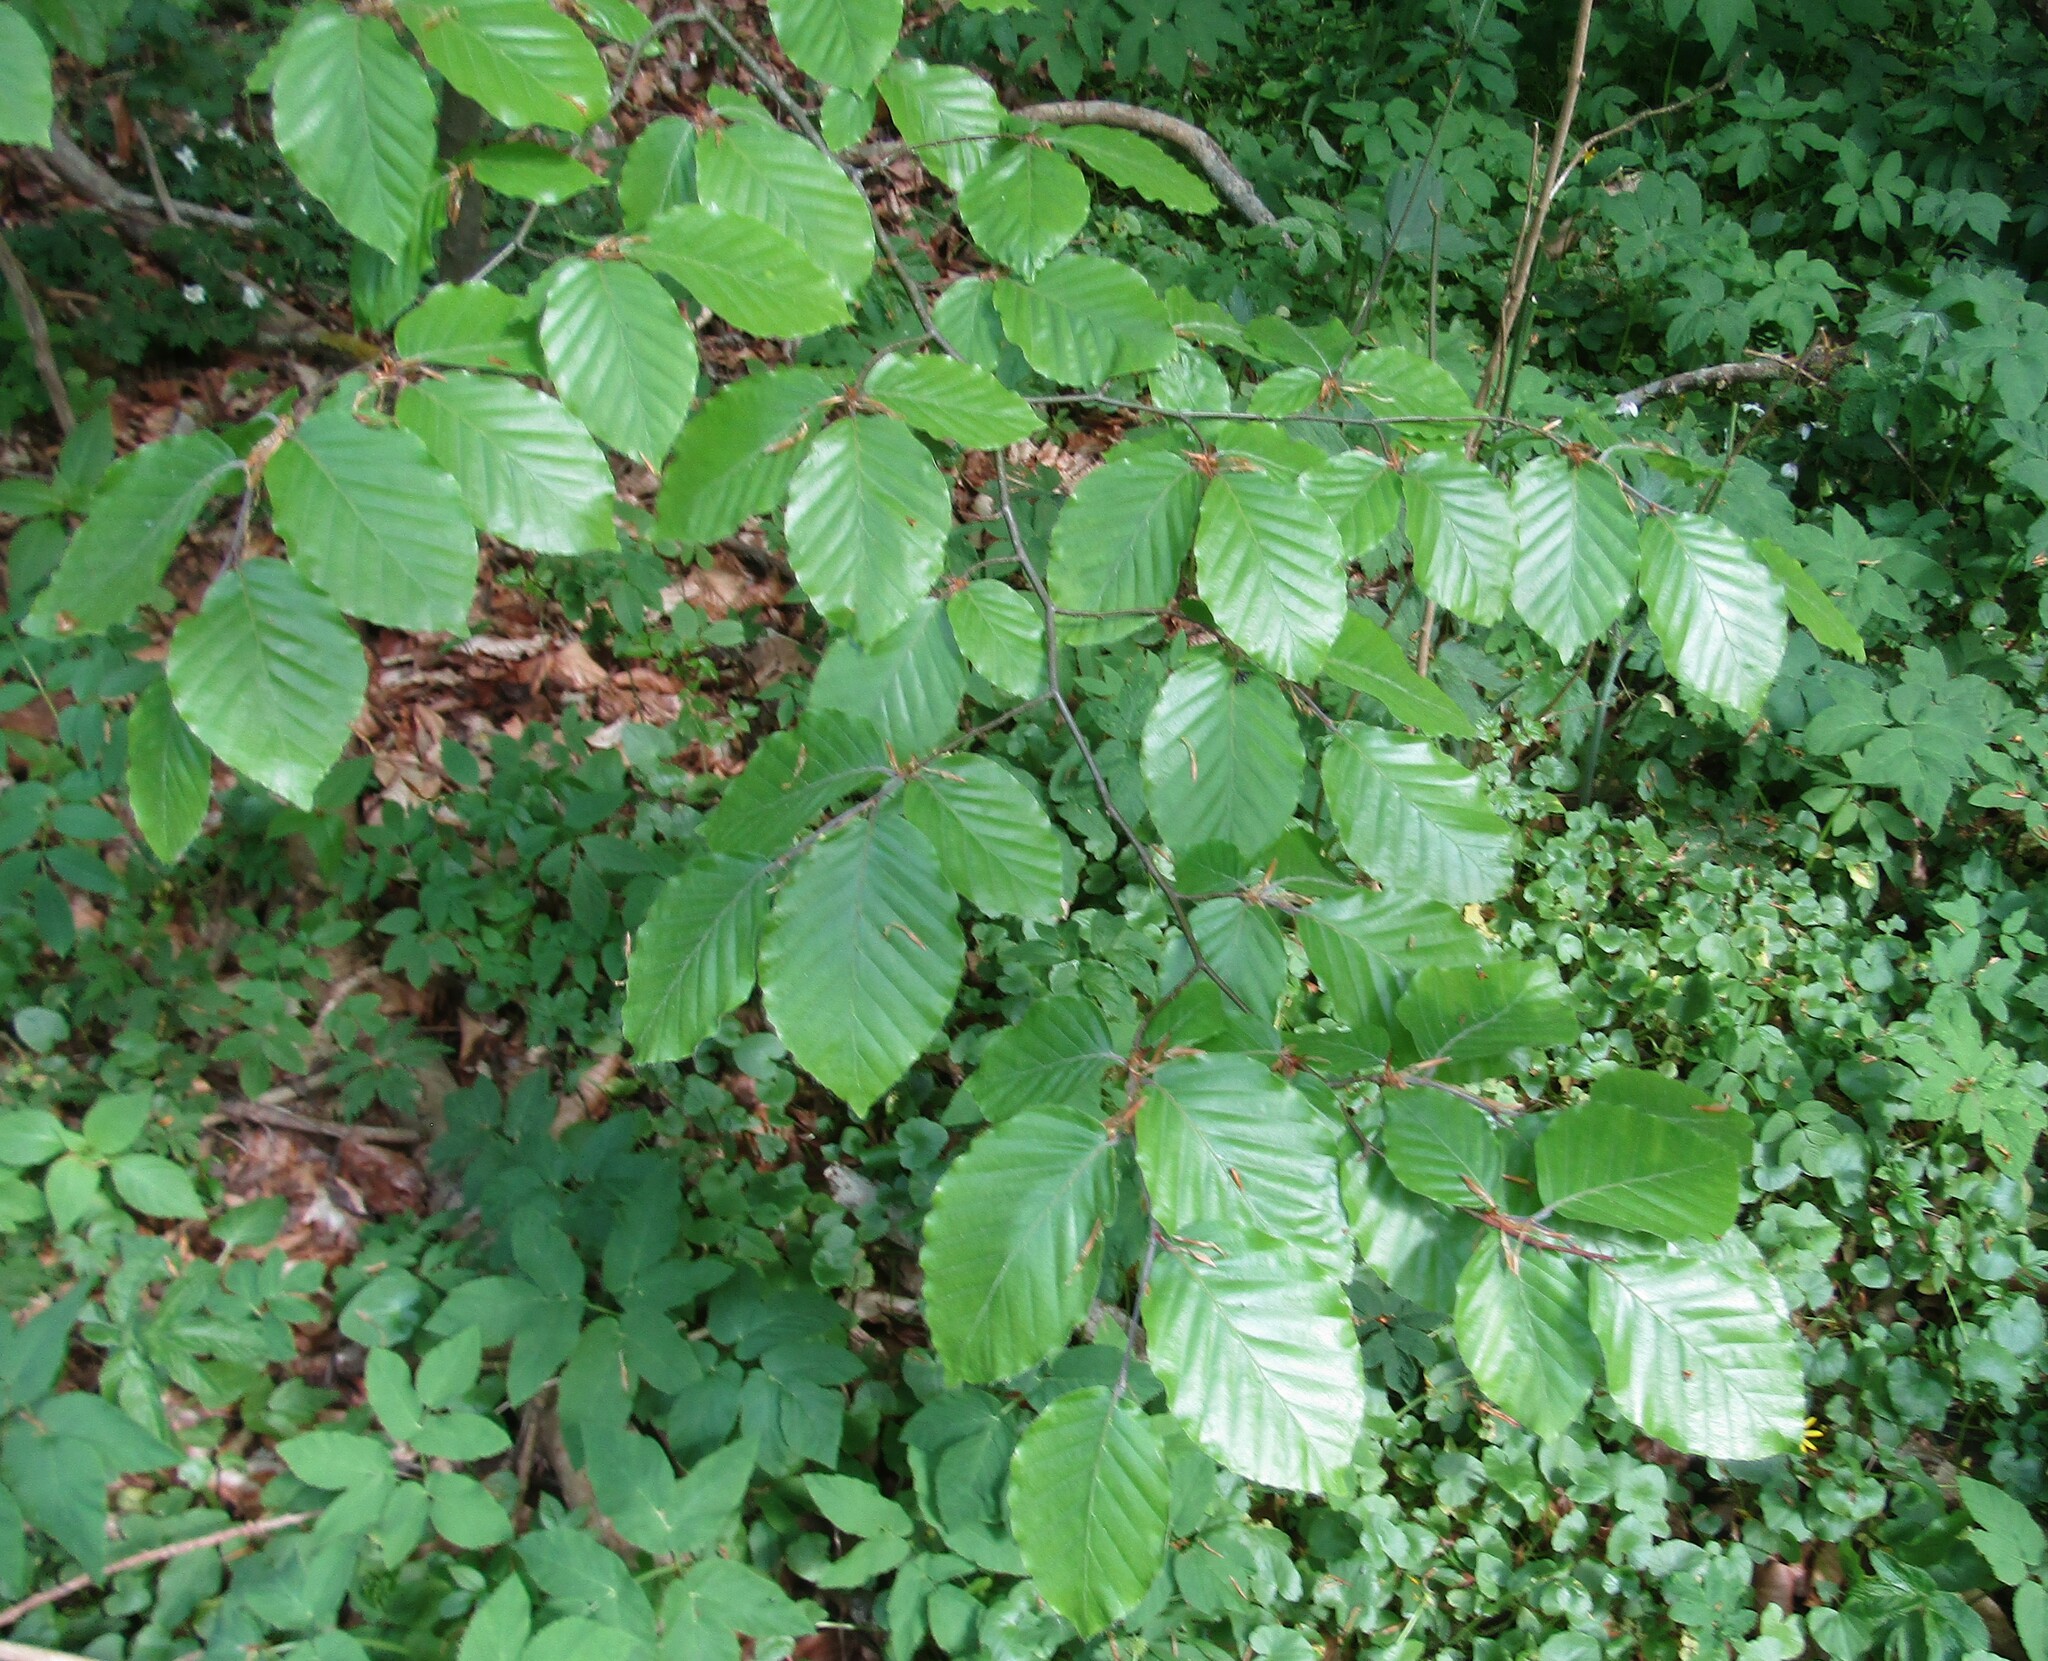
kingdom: Plantae
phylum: Tracheophyta
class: Magnoliopsida
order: Fagales
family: Fagaceae
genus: Fagus
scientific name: Fagus sylvatica
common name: Beech
